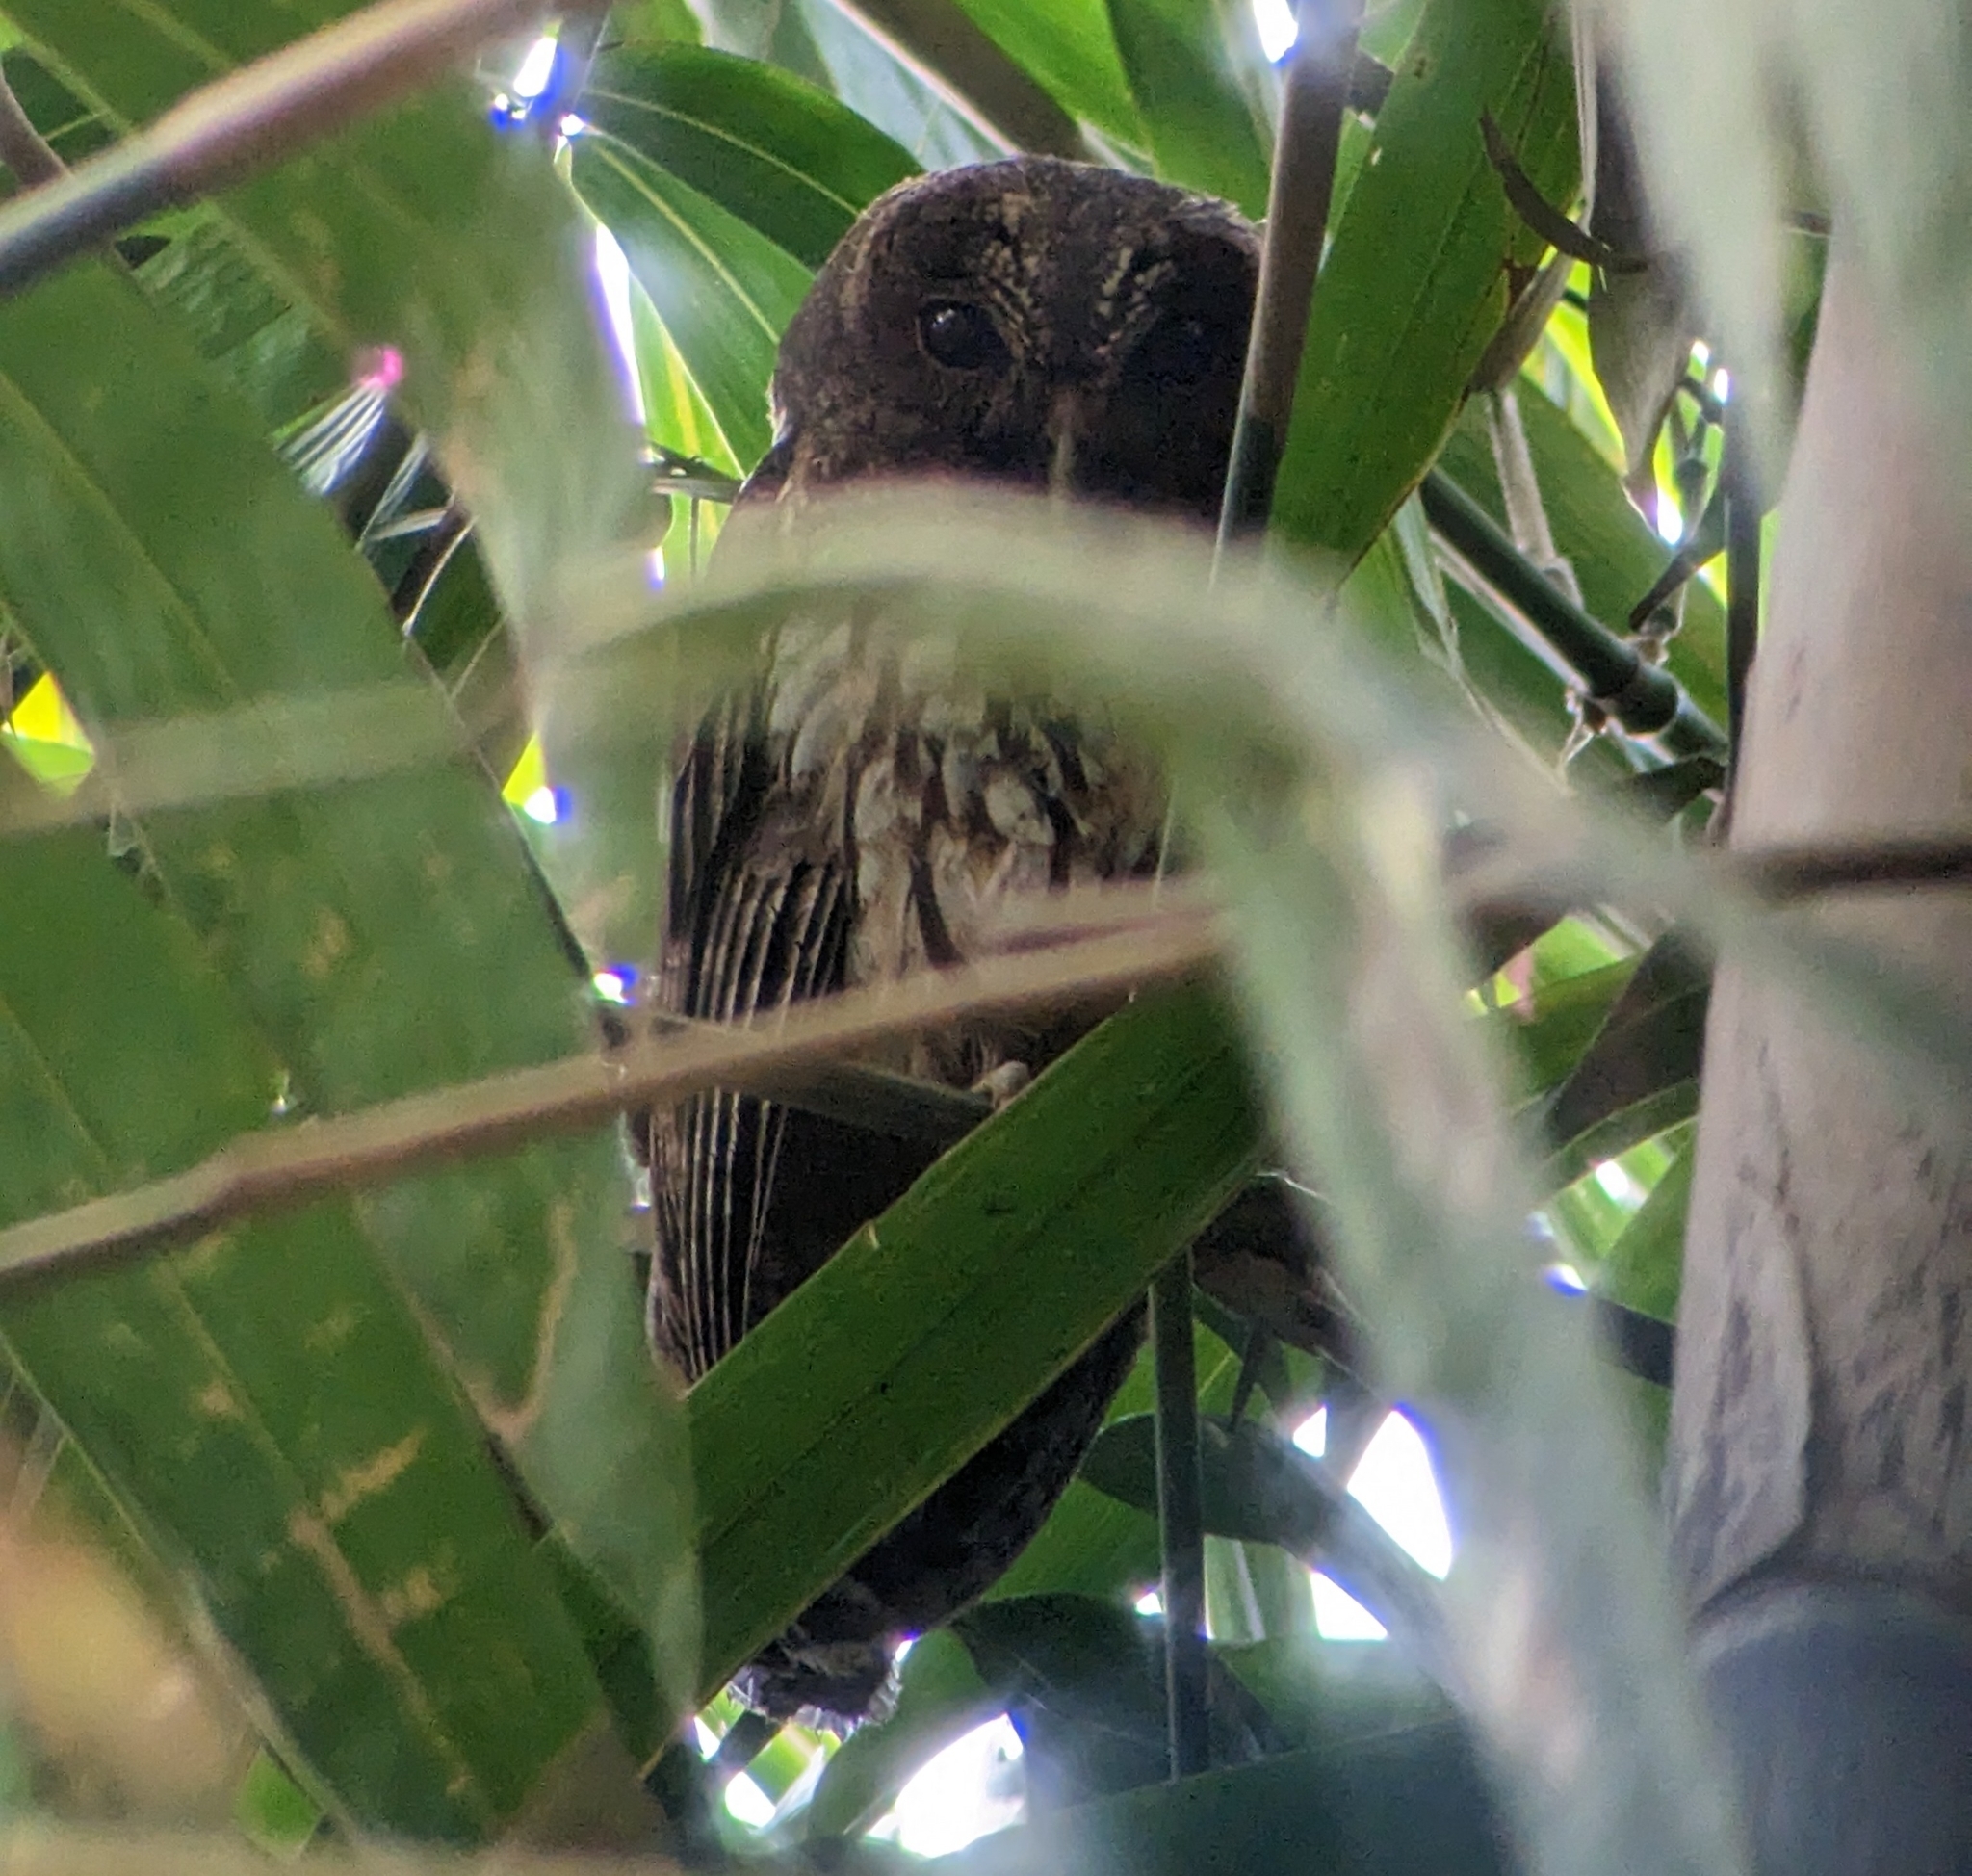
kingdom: Animalia
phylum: Chordata
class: Aves
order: Strigiformes
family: Strigidae
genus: Strix
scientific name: Strix virgata
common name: Mottled owl
